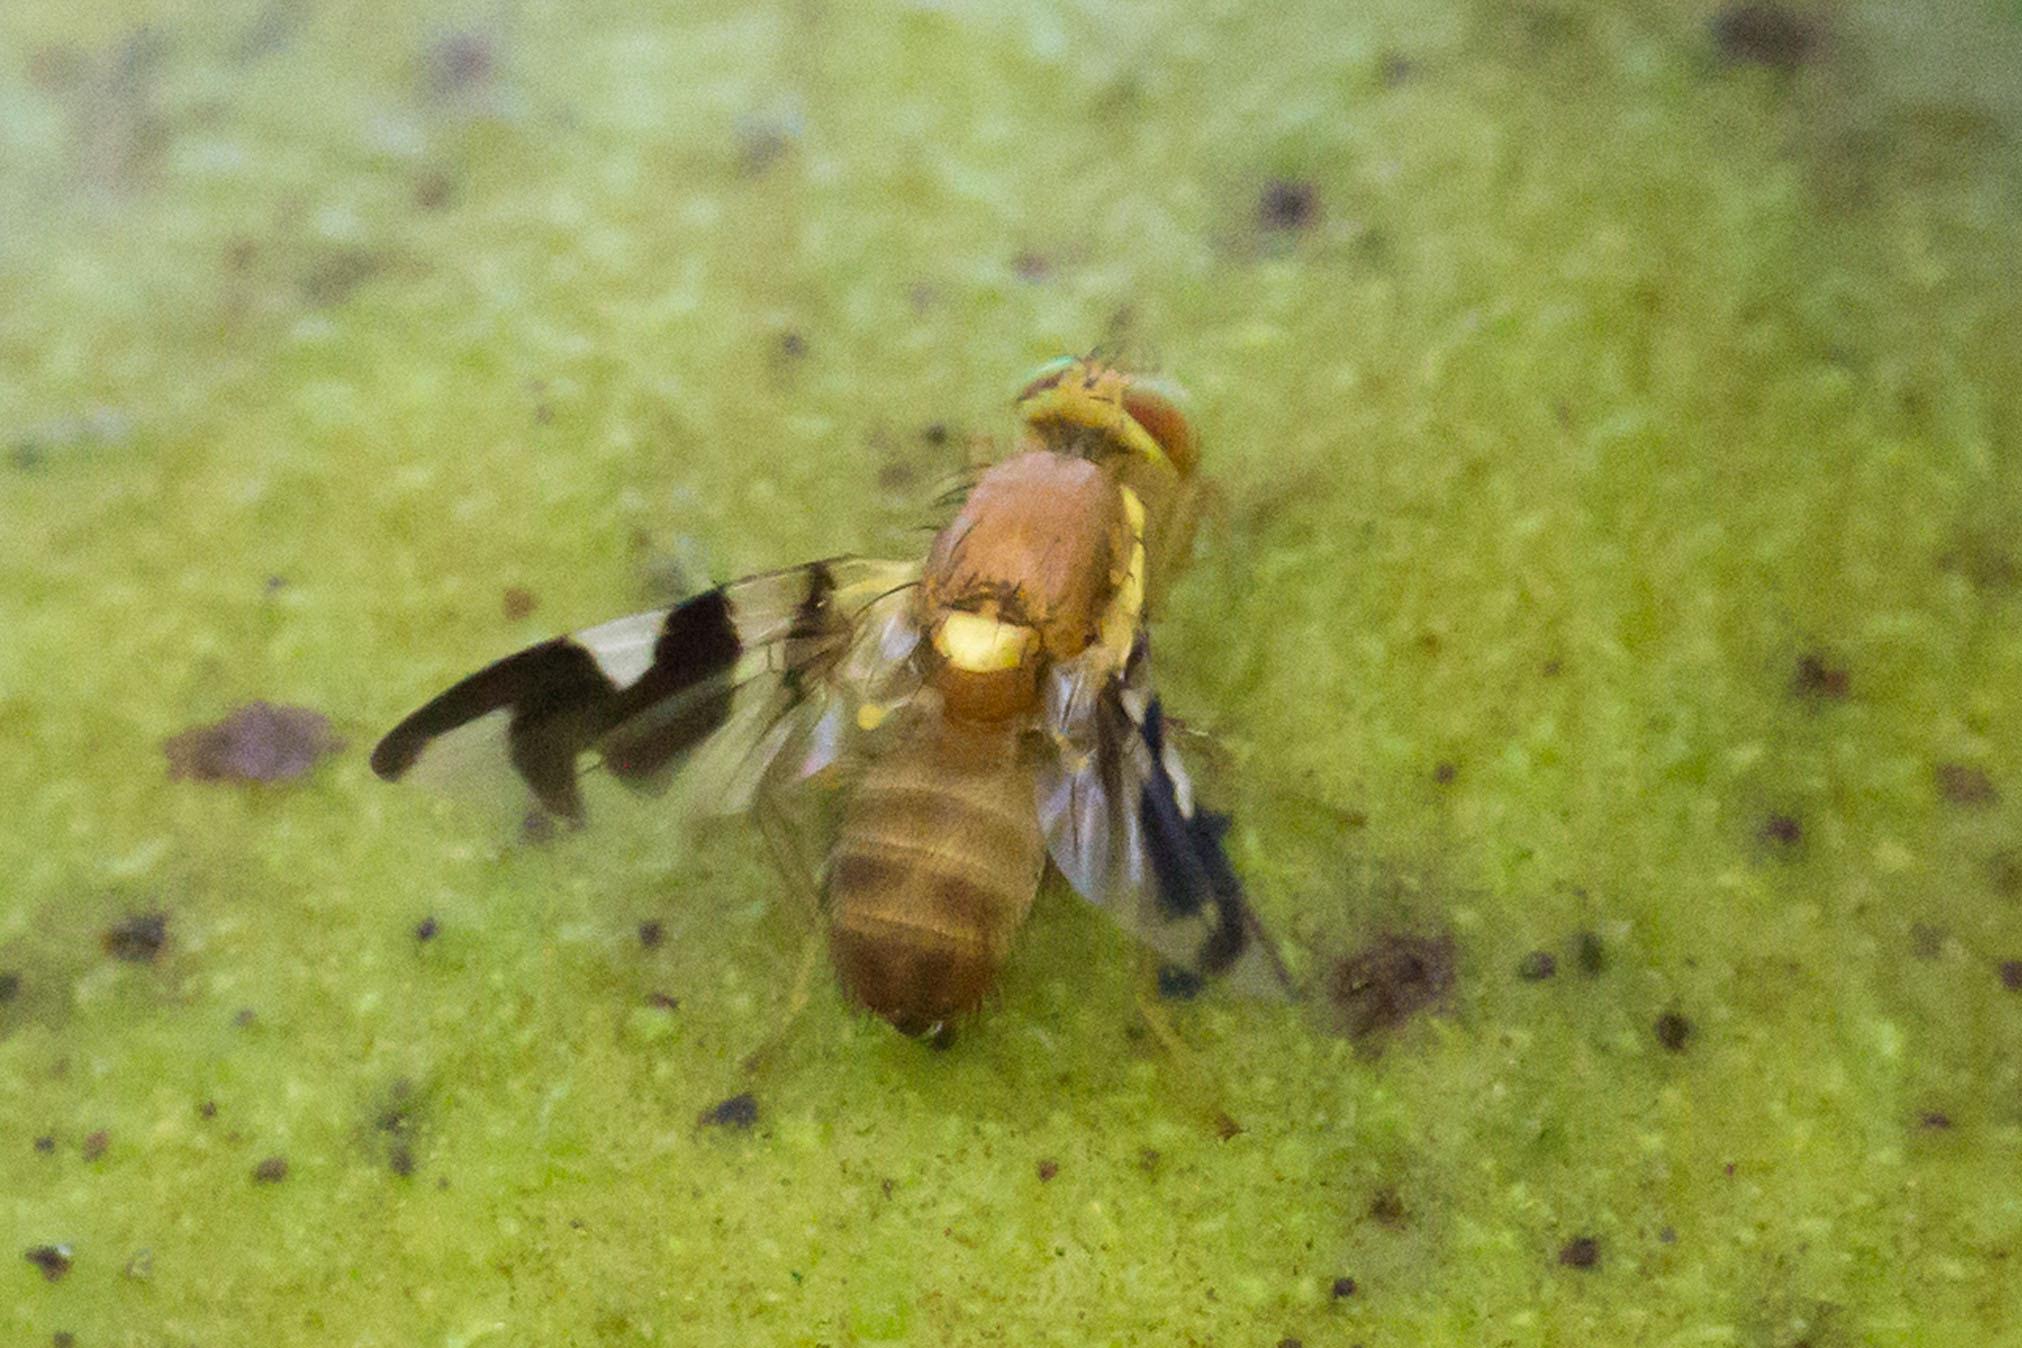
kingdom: Animalia
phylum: Arthropoda
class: Insecta
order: Diptera
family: Tephritidae
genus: Rhagoletis
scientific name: Rhagoletis suavis
